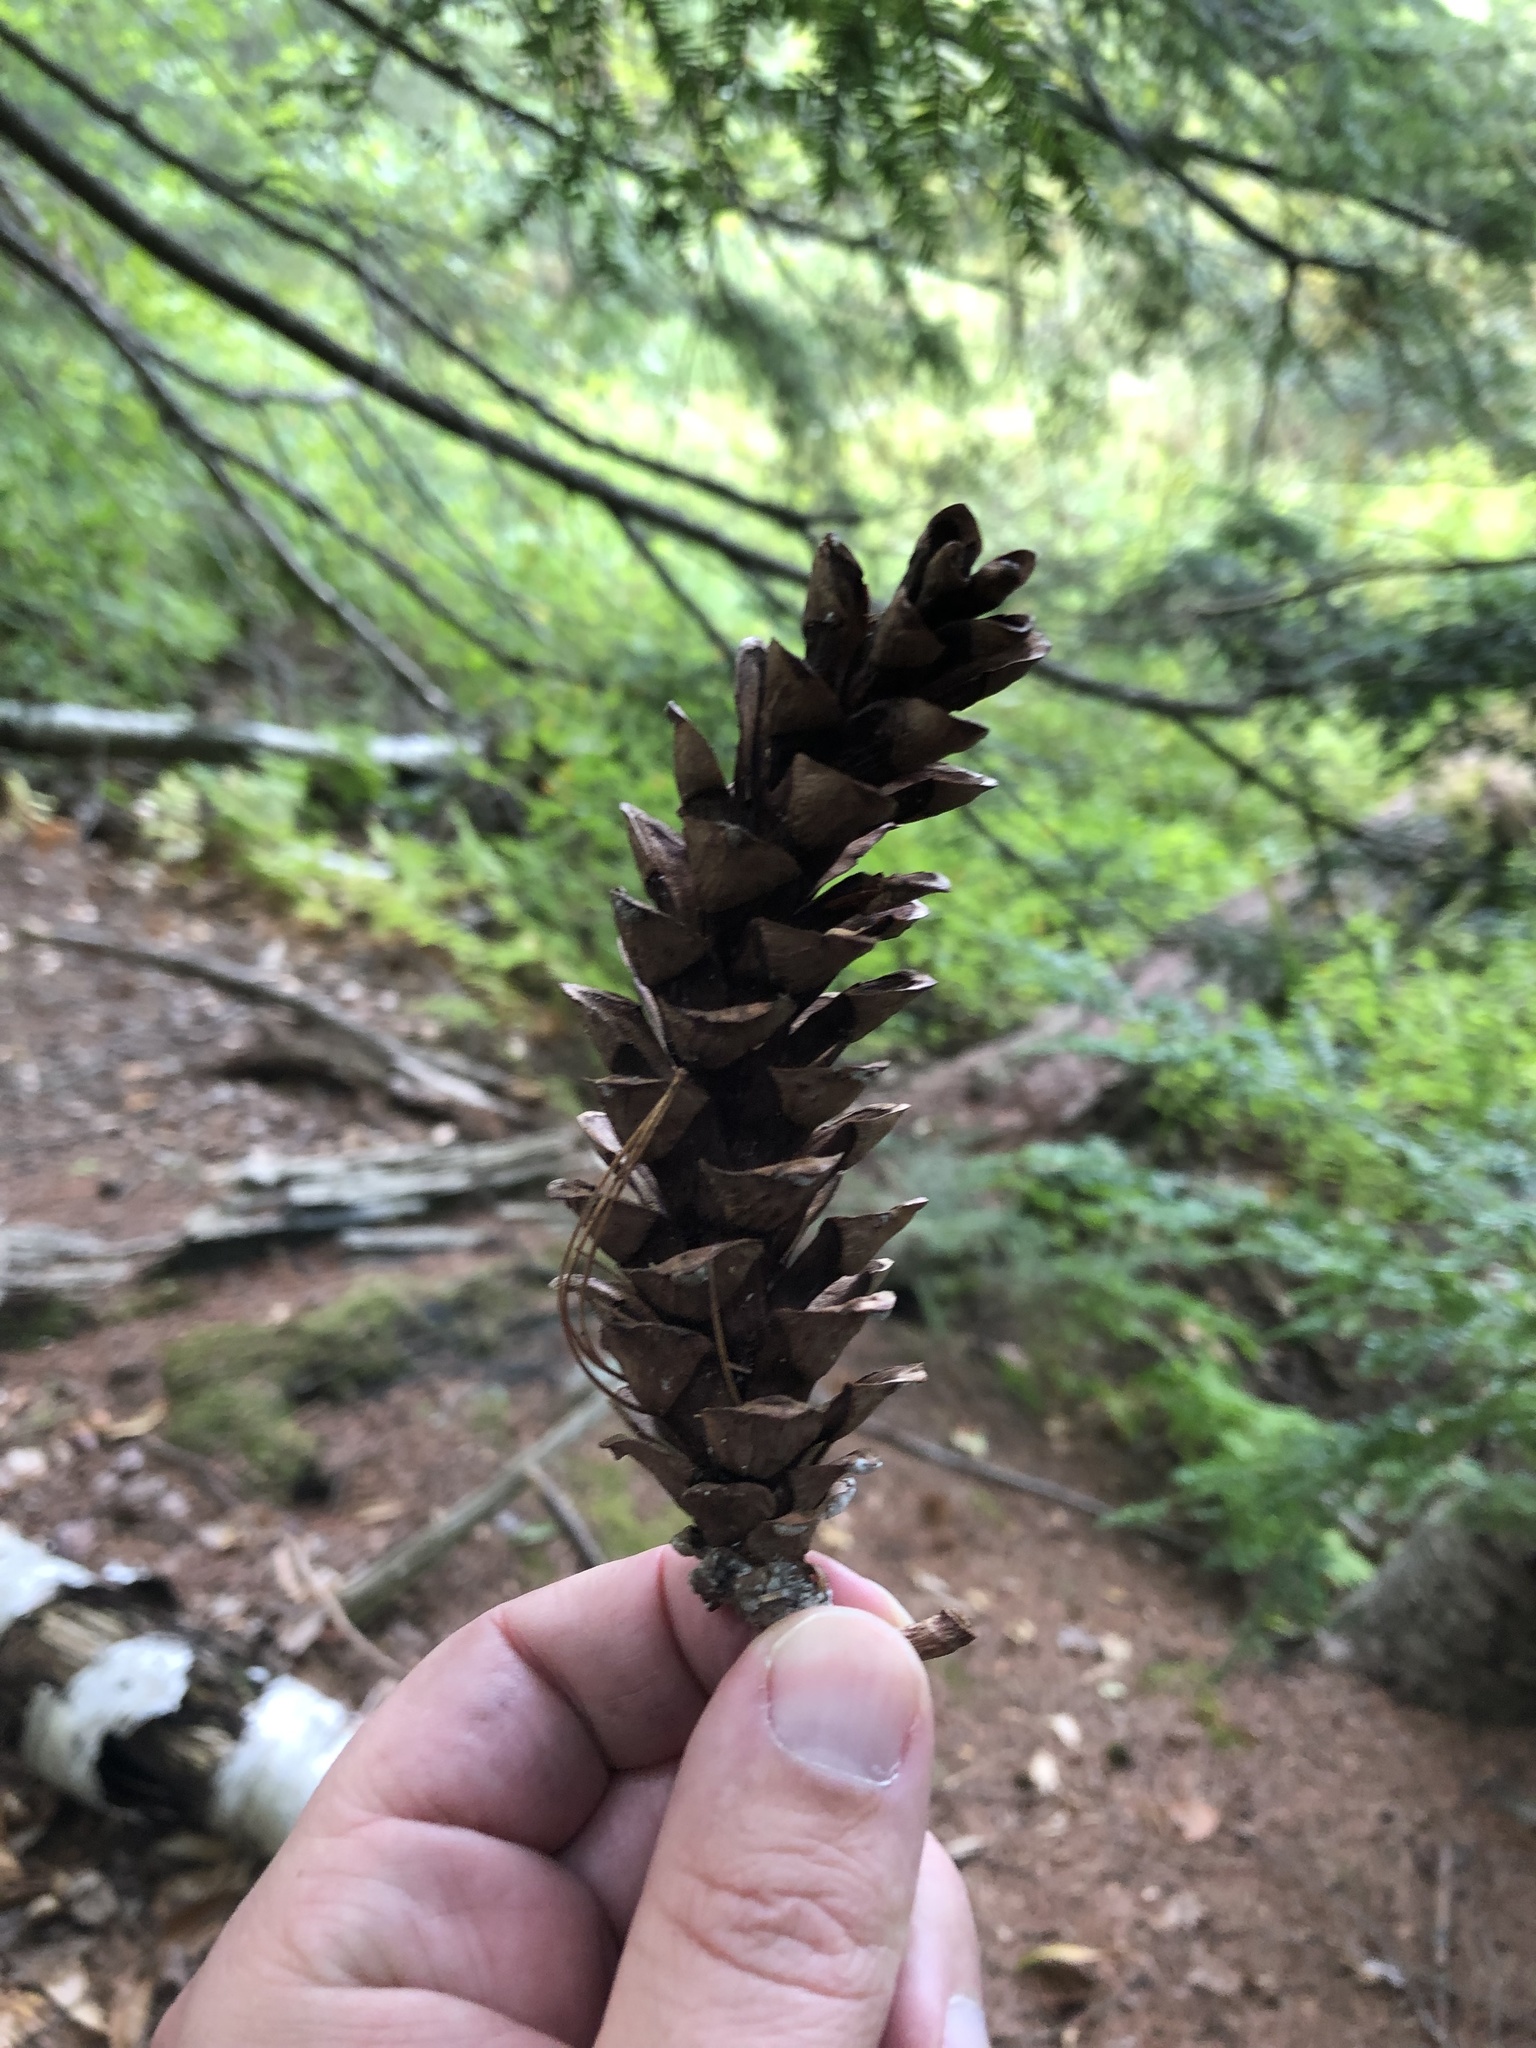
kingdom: Plantae
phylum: Tracheophyta
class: Pinopsida
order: Pinales
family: Pinaceae
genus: Pinus
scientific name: Pinus strobus
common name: Weymouth pine
